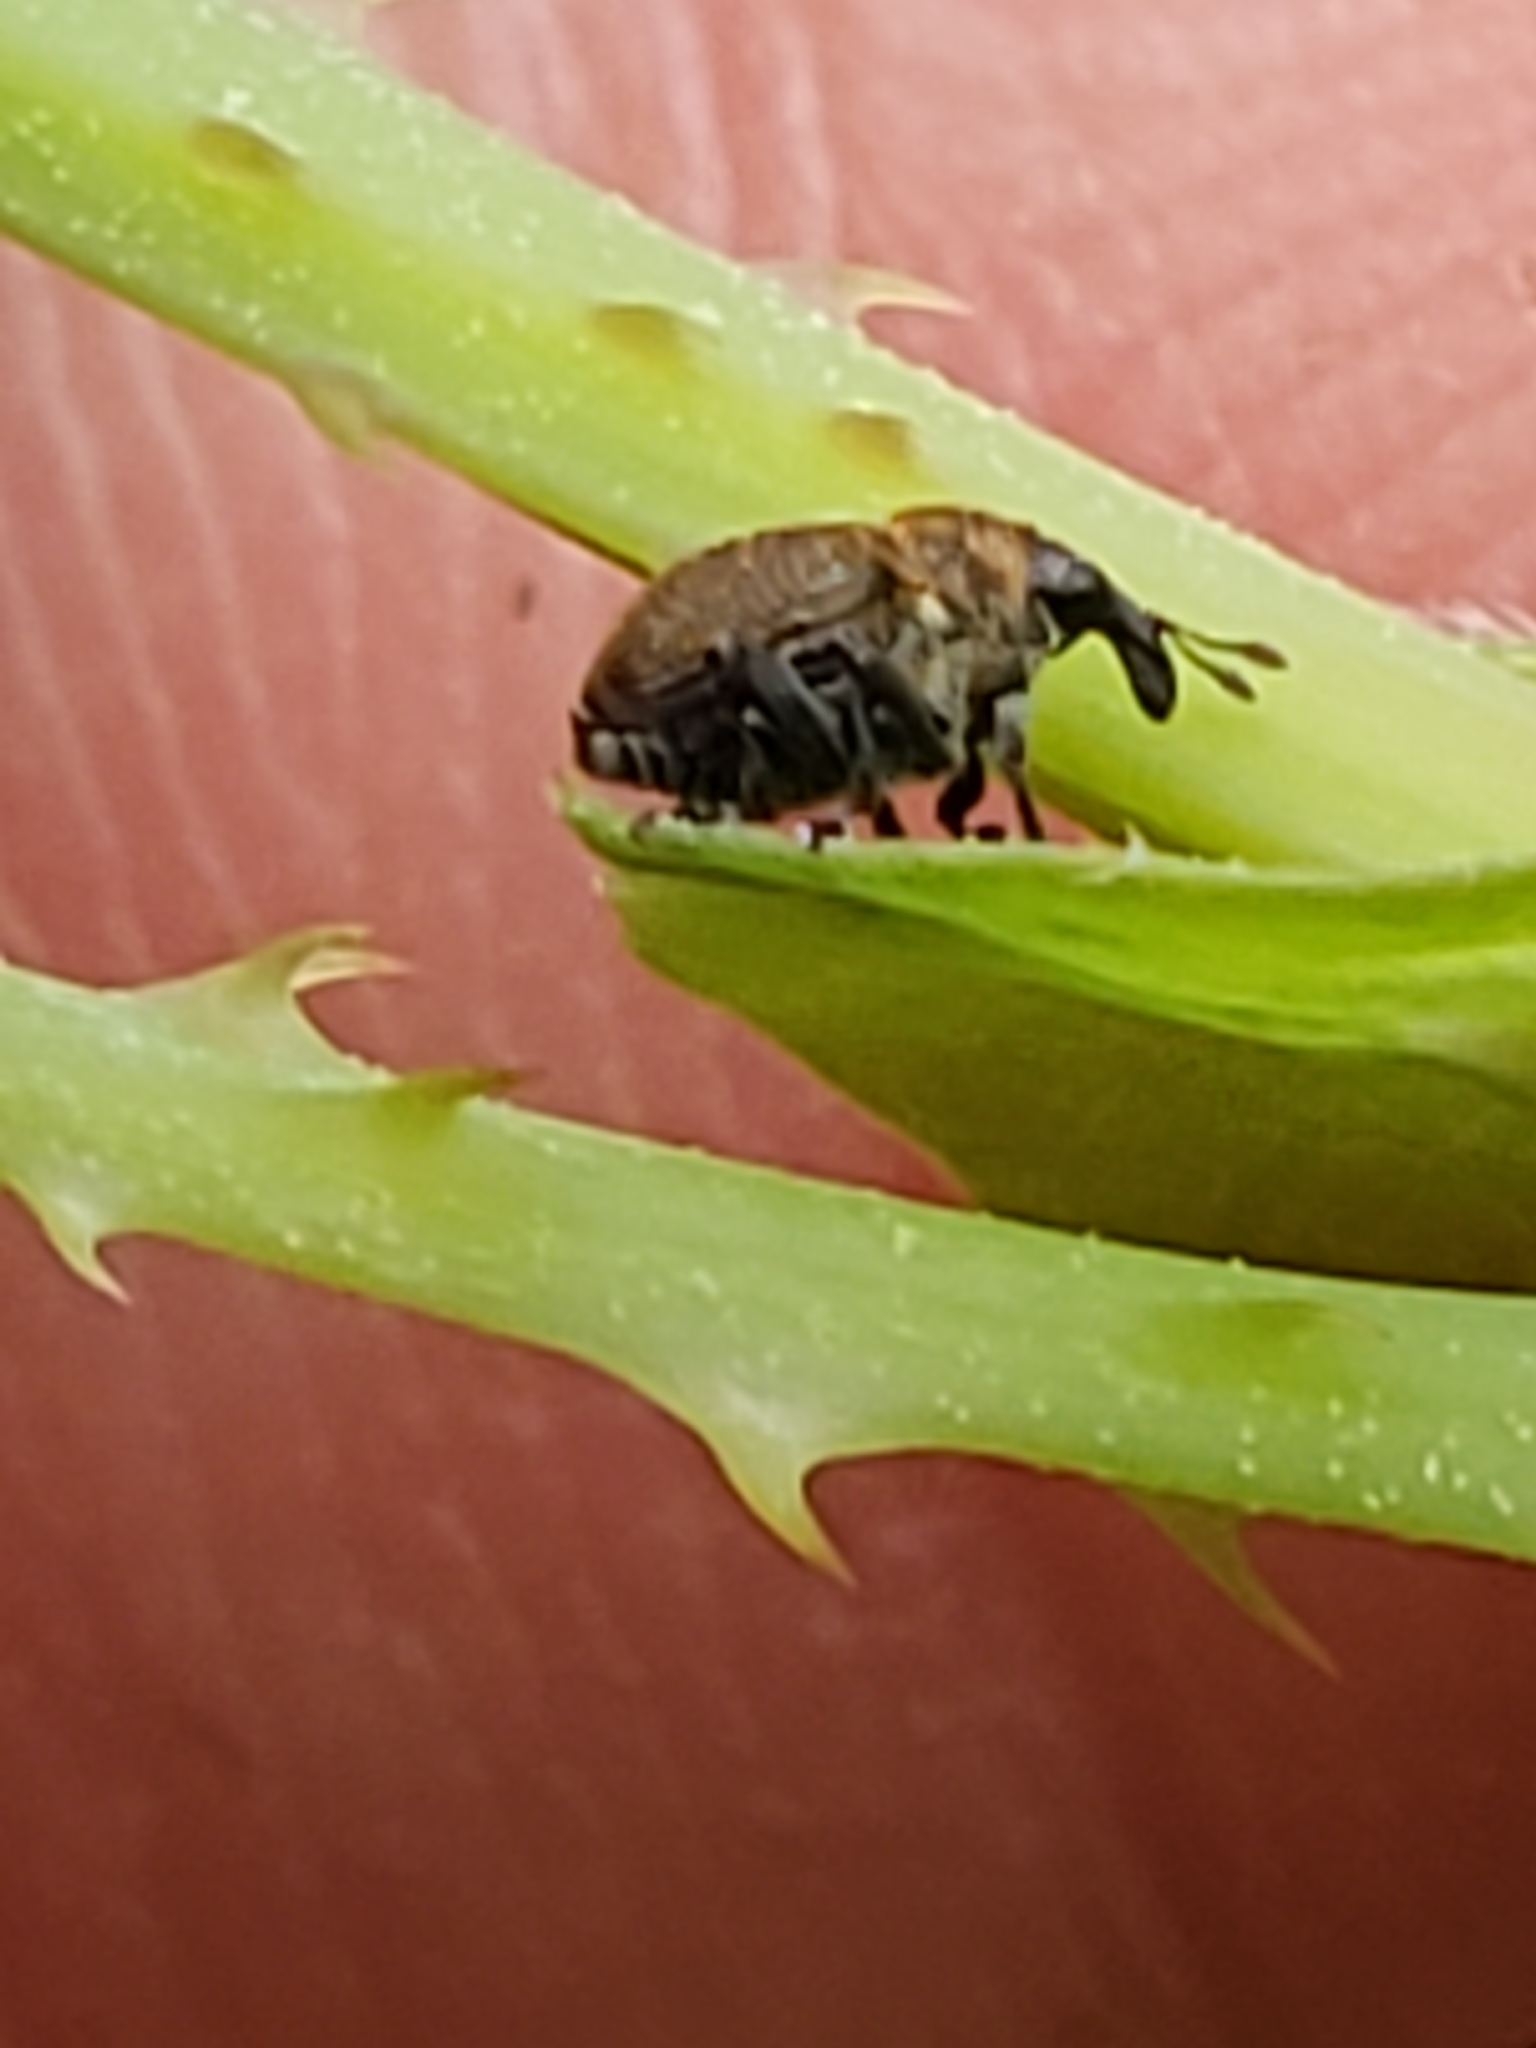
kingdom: Animalia
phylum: Arthropoda
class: Insecta
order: Coleoptera
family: Curculionidae
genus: Rhinoncomimus
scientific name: Rhinoncomimus latipes
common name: Chinese weevil
